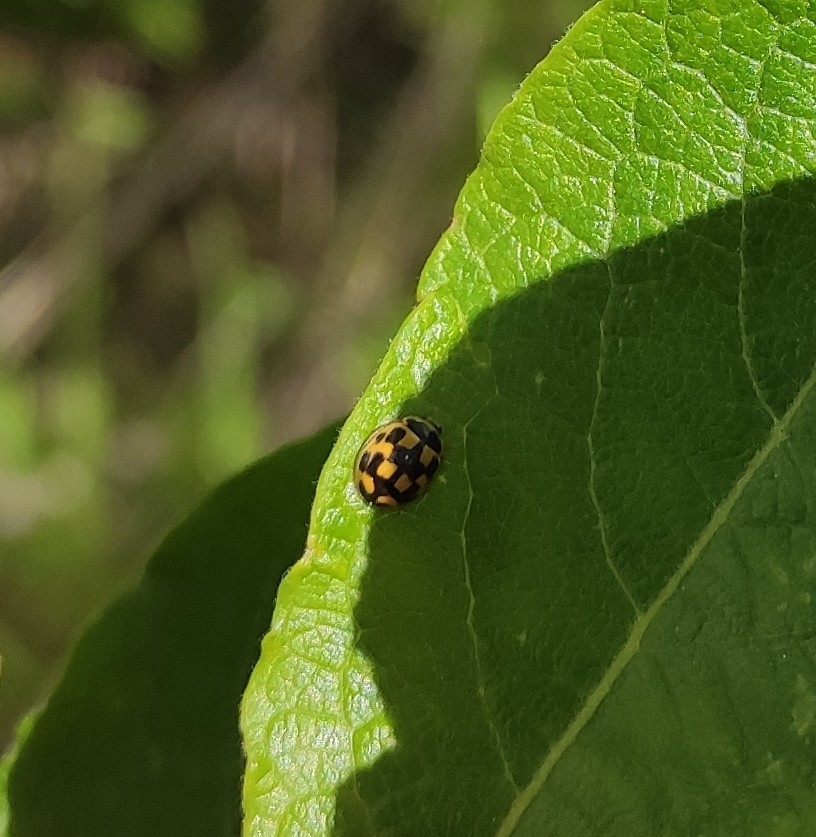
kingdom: Animalia
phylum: Arthropoda
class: Insecta
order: Coleoptera
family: Coccinellidae
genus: Propylaea
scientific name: Propylaea quatuordecimpunctata
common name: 14-spotted ladybird beetle
